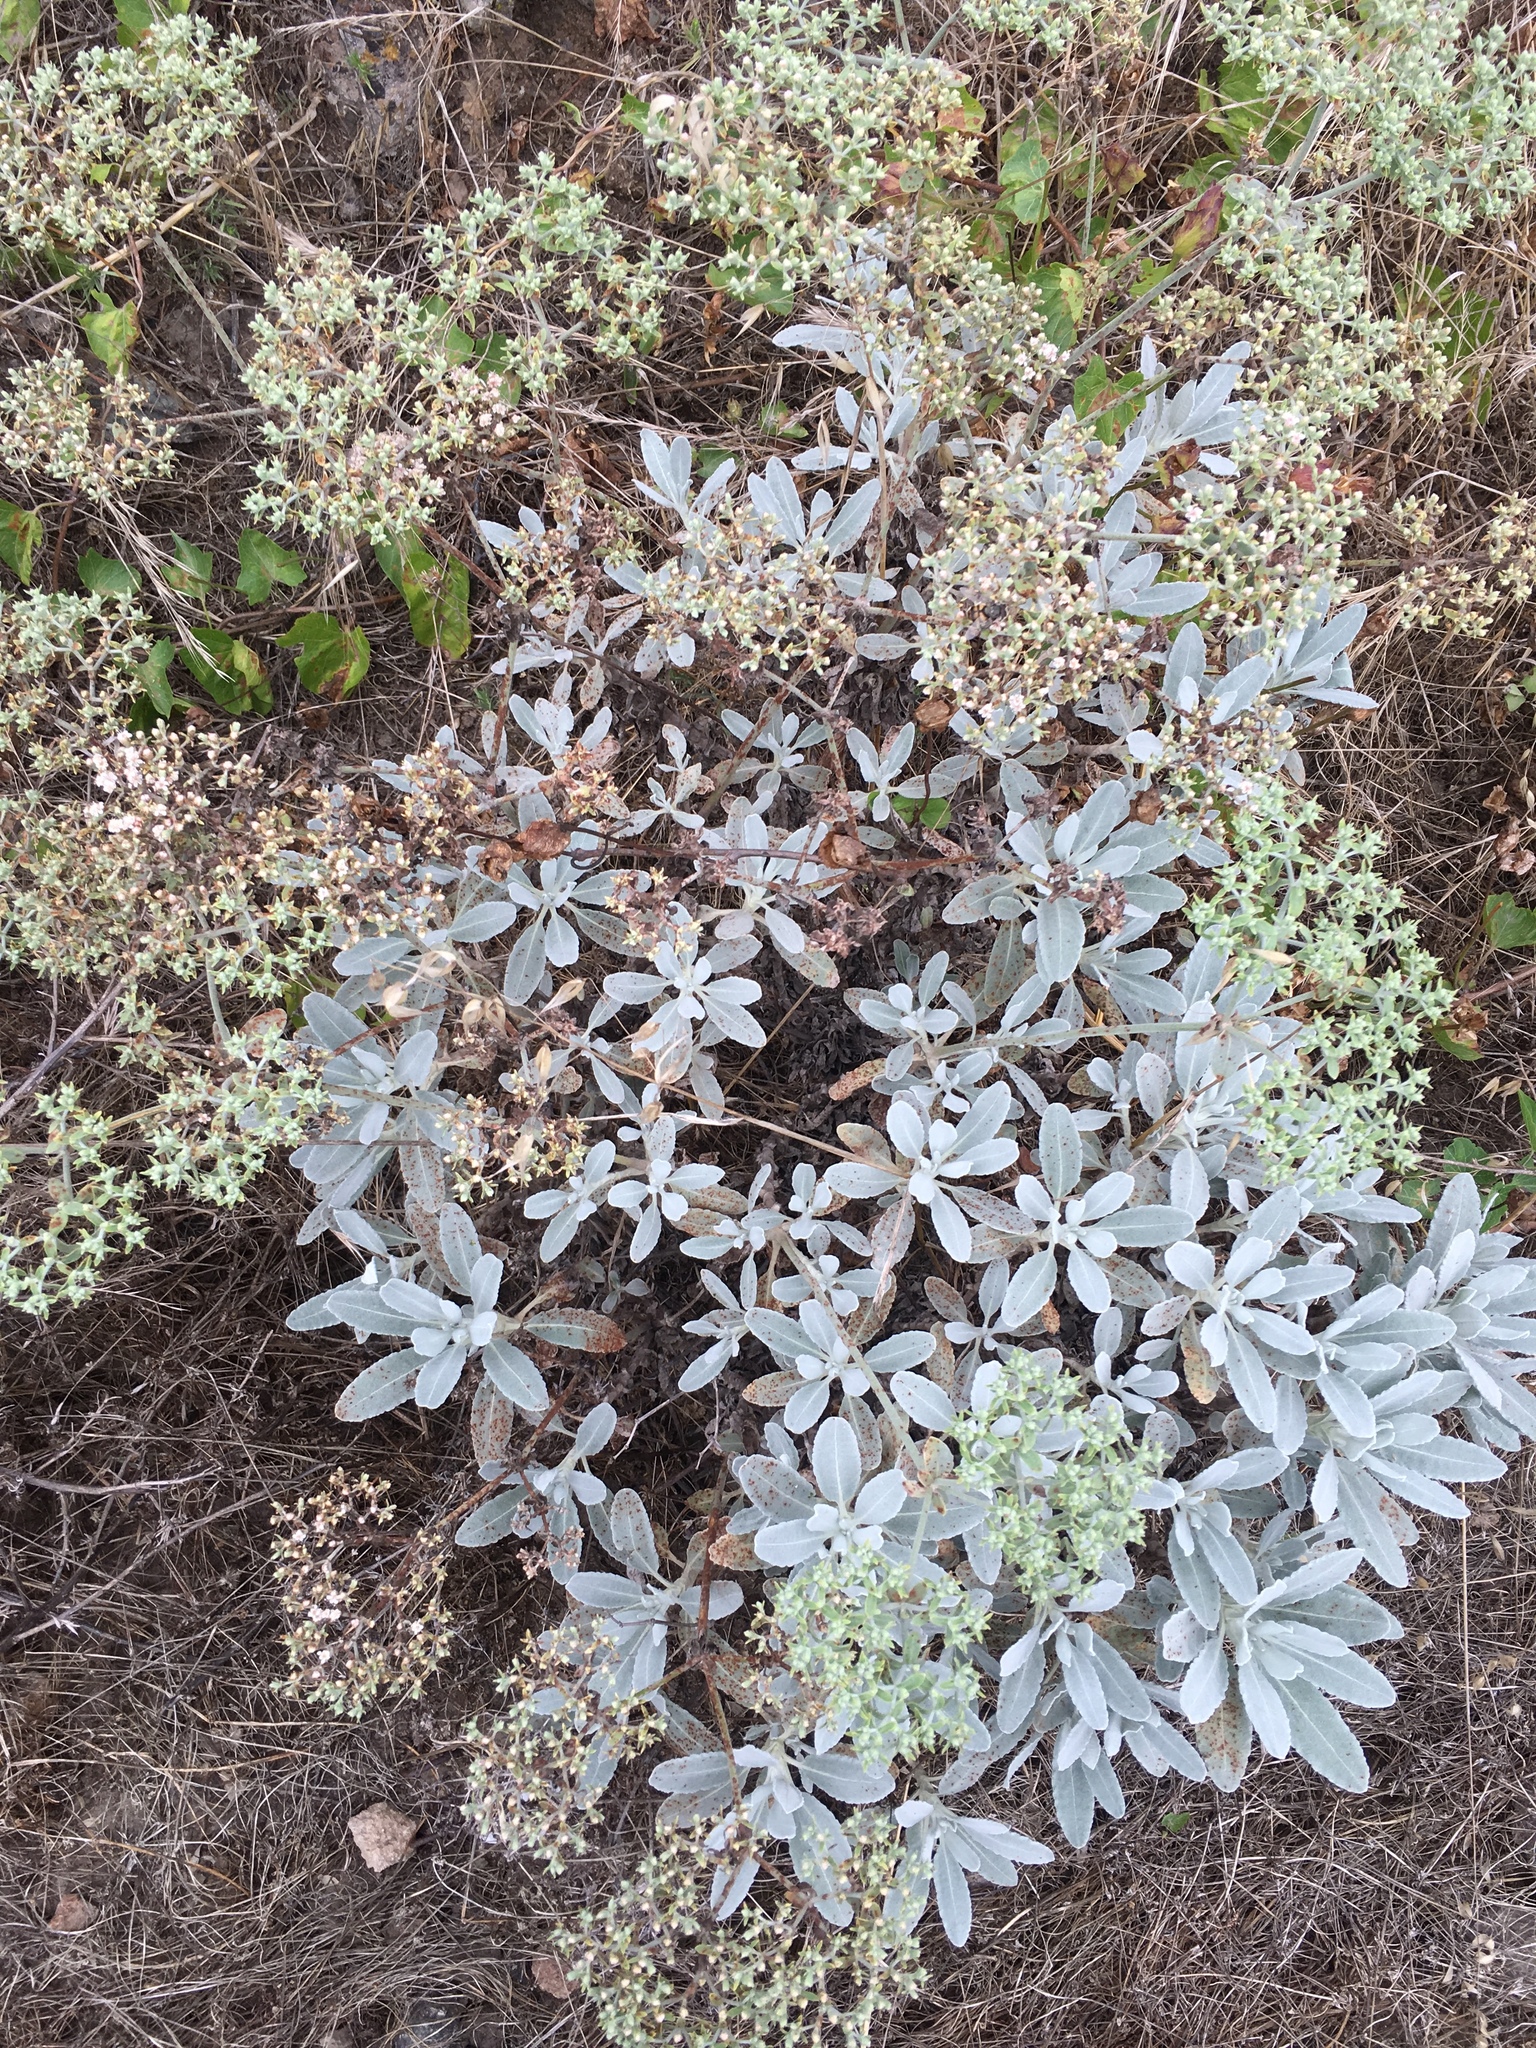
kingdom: Plantae
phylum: Tracheophyta
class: Magnoliopsida
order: Caryophyllales
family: Polygonaceae
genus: Eriogonum
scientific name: Eriogonum giganteum
